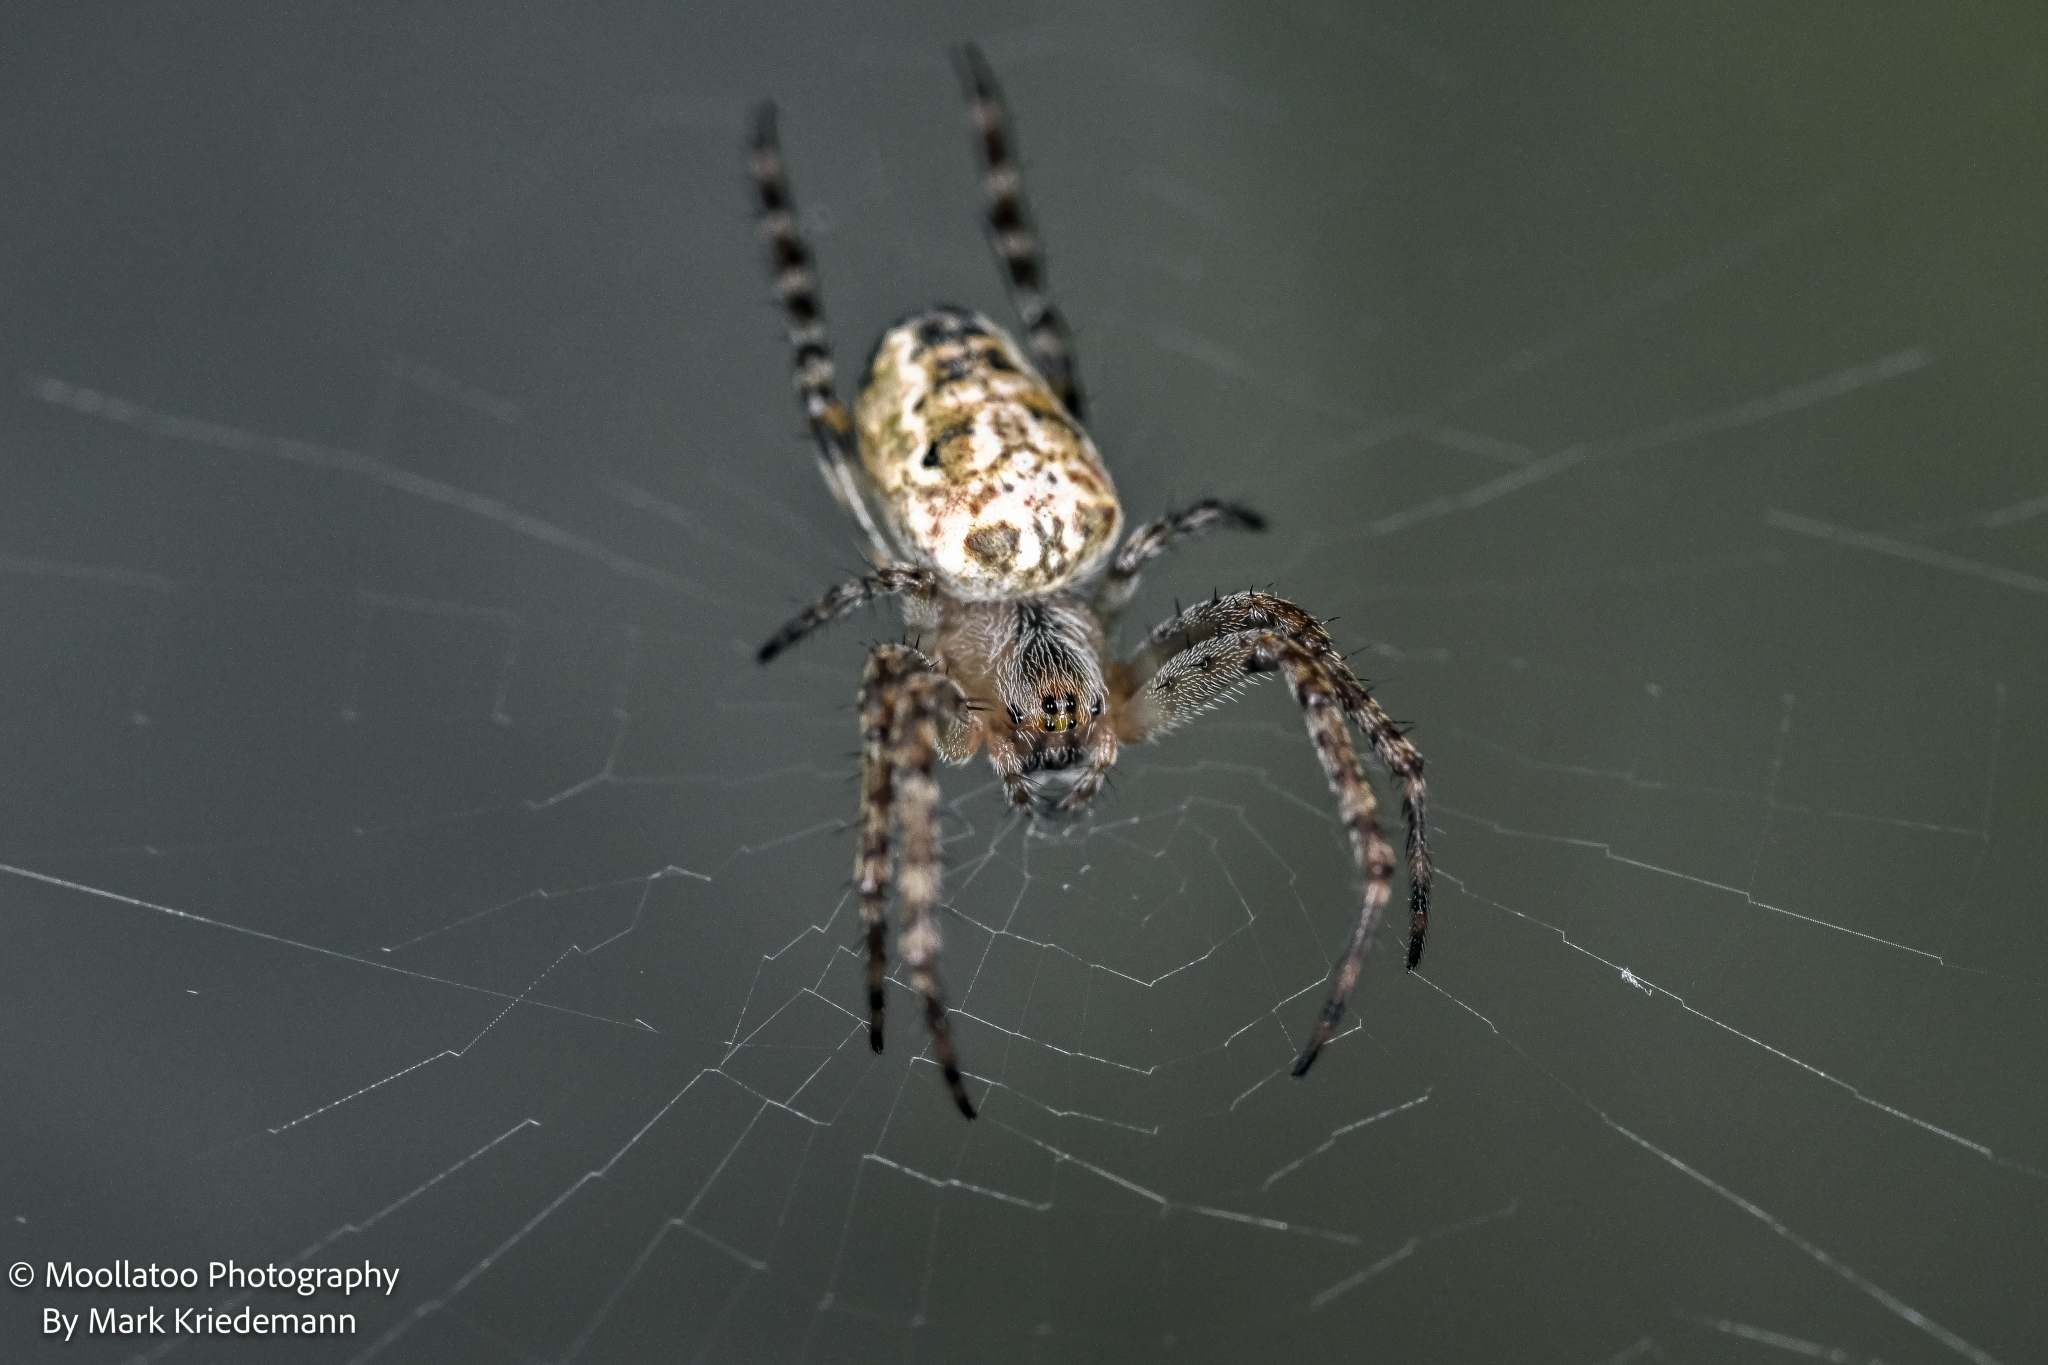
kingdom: Animalia
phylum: Arthropoda
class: Arachnida
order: Araneae
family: Araneidae
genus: Plebs
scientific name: Plebs eburnus
